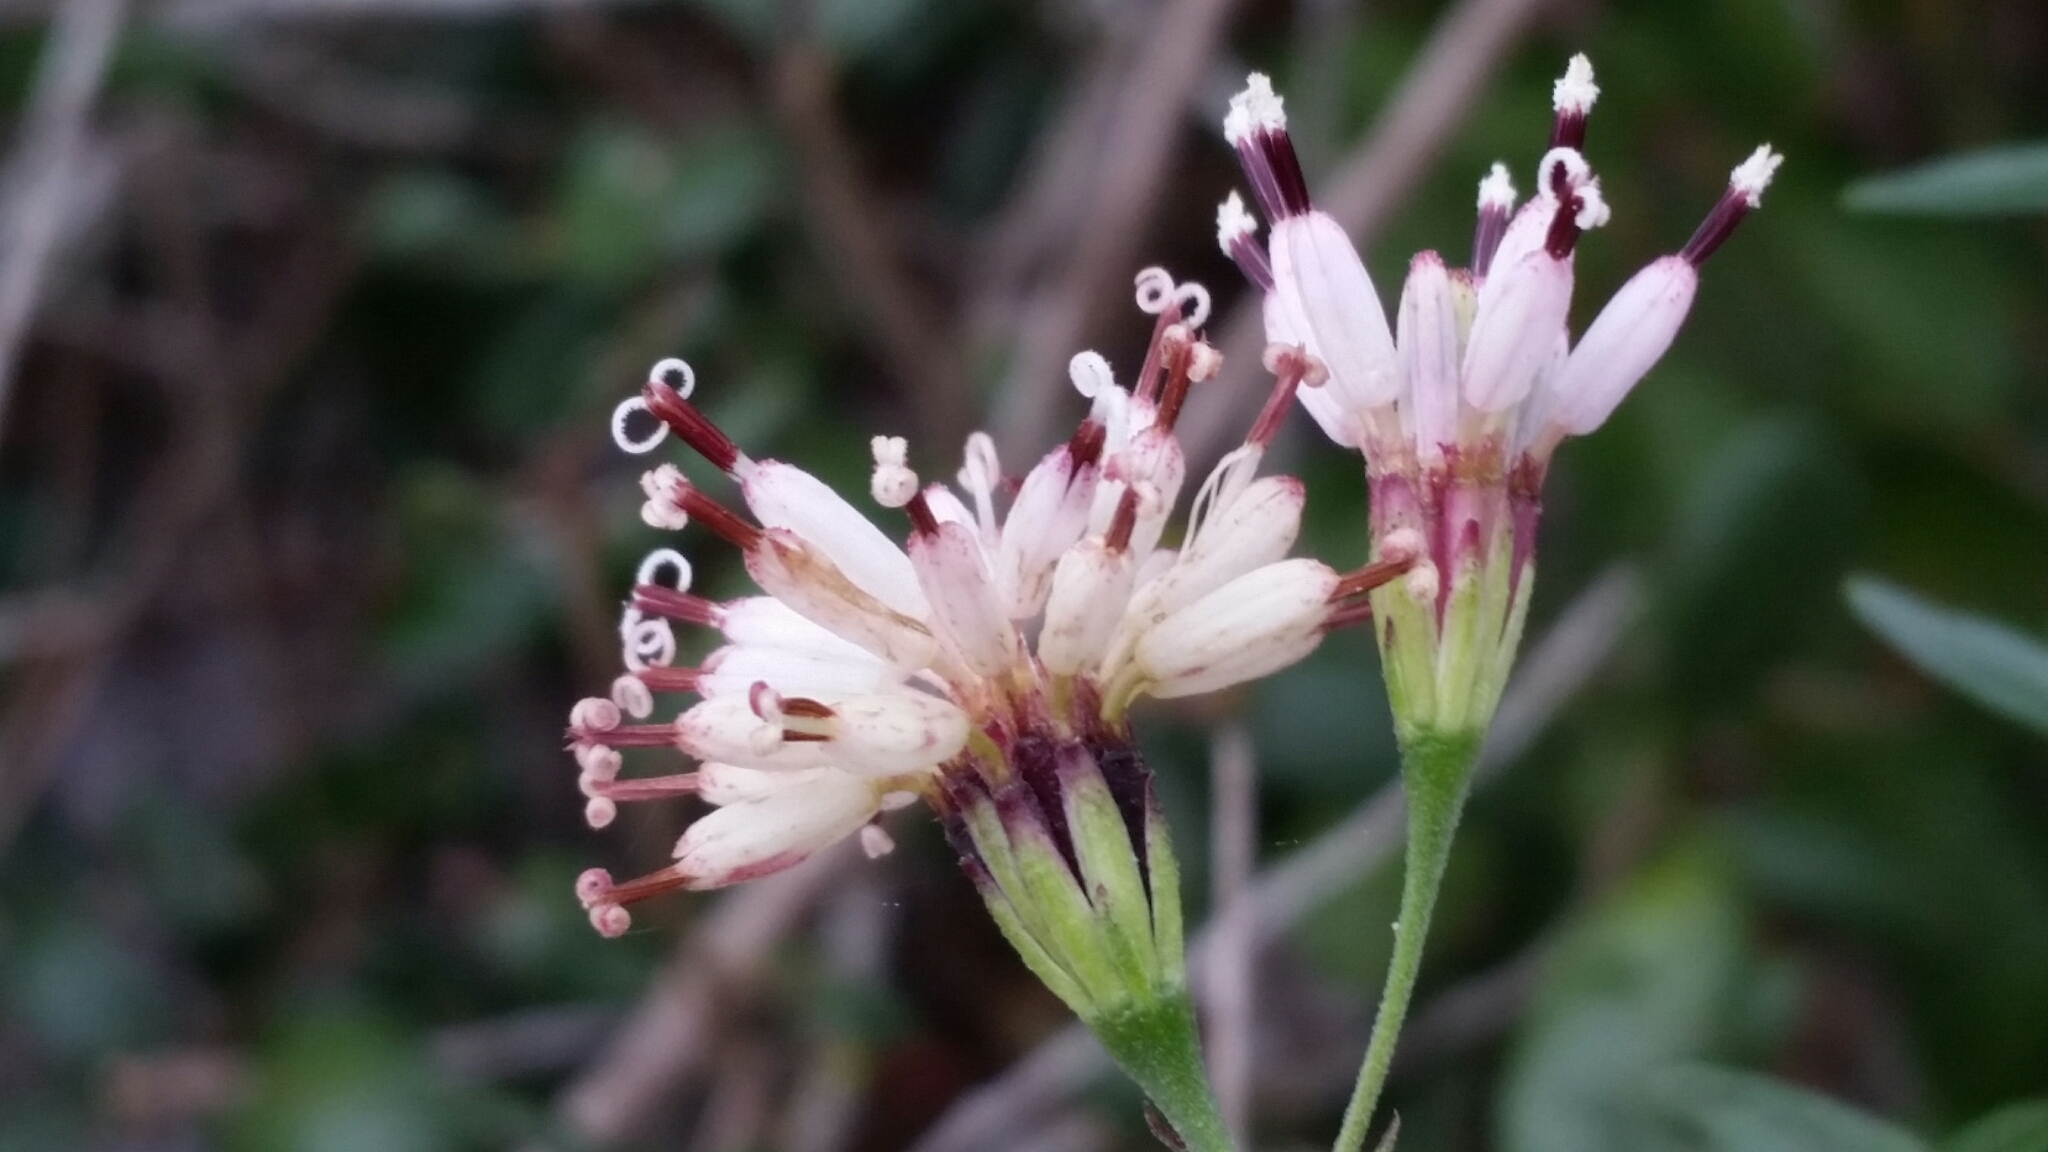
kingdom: Plantae
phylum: Tracheophyta
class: Magnoliopsida
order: Asterales
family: Asteraceae
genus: Palafoxia
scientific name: Palafoxia feayi
